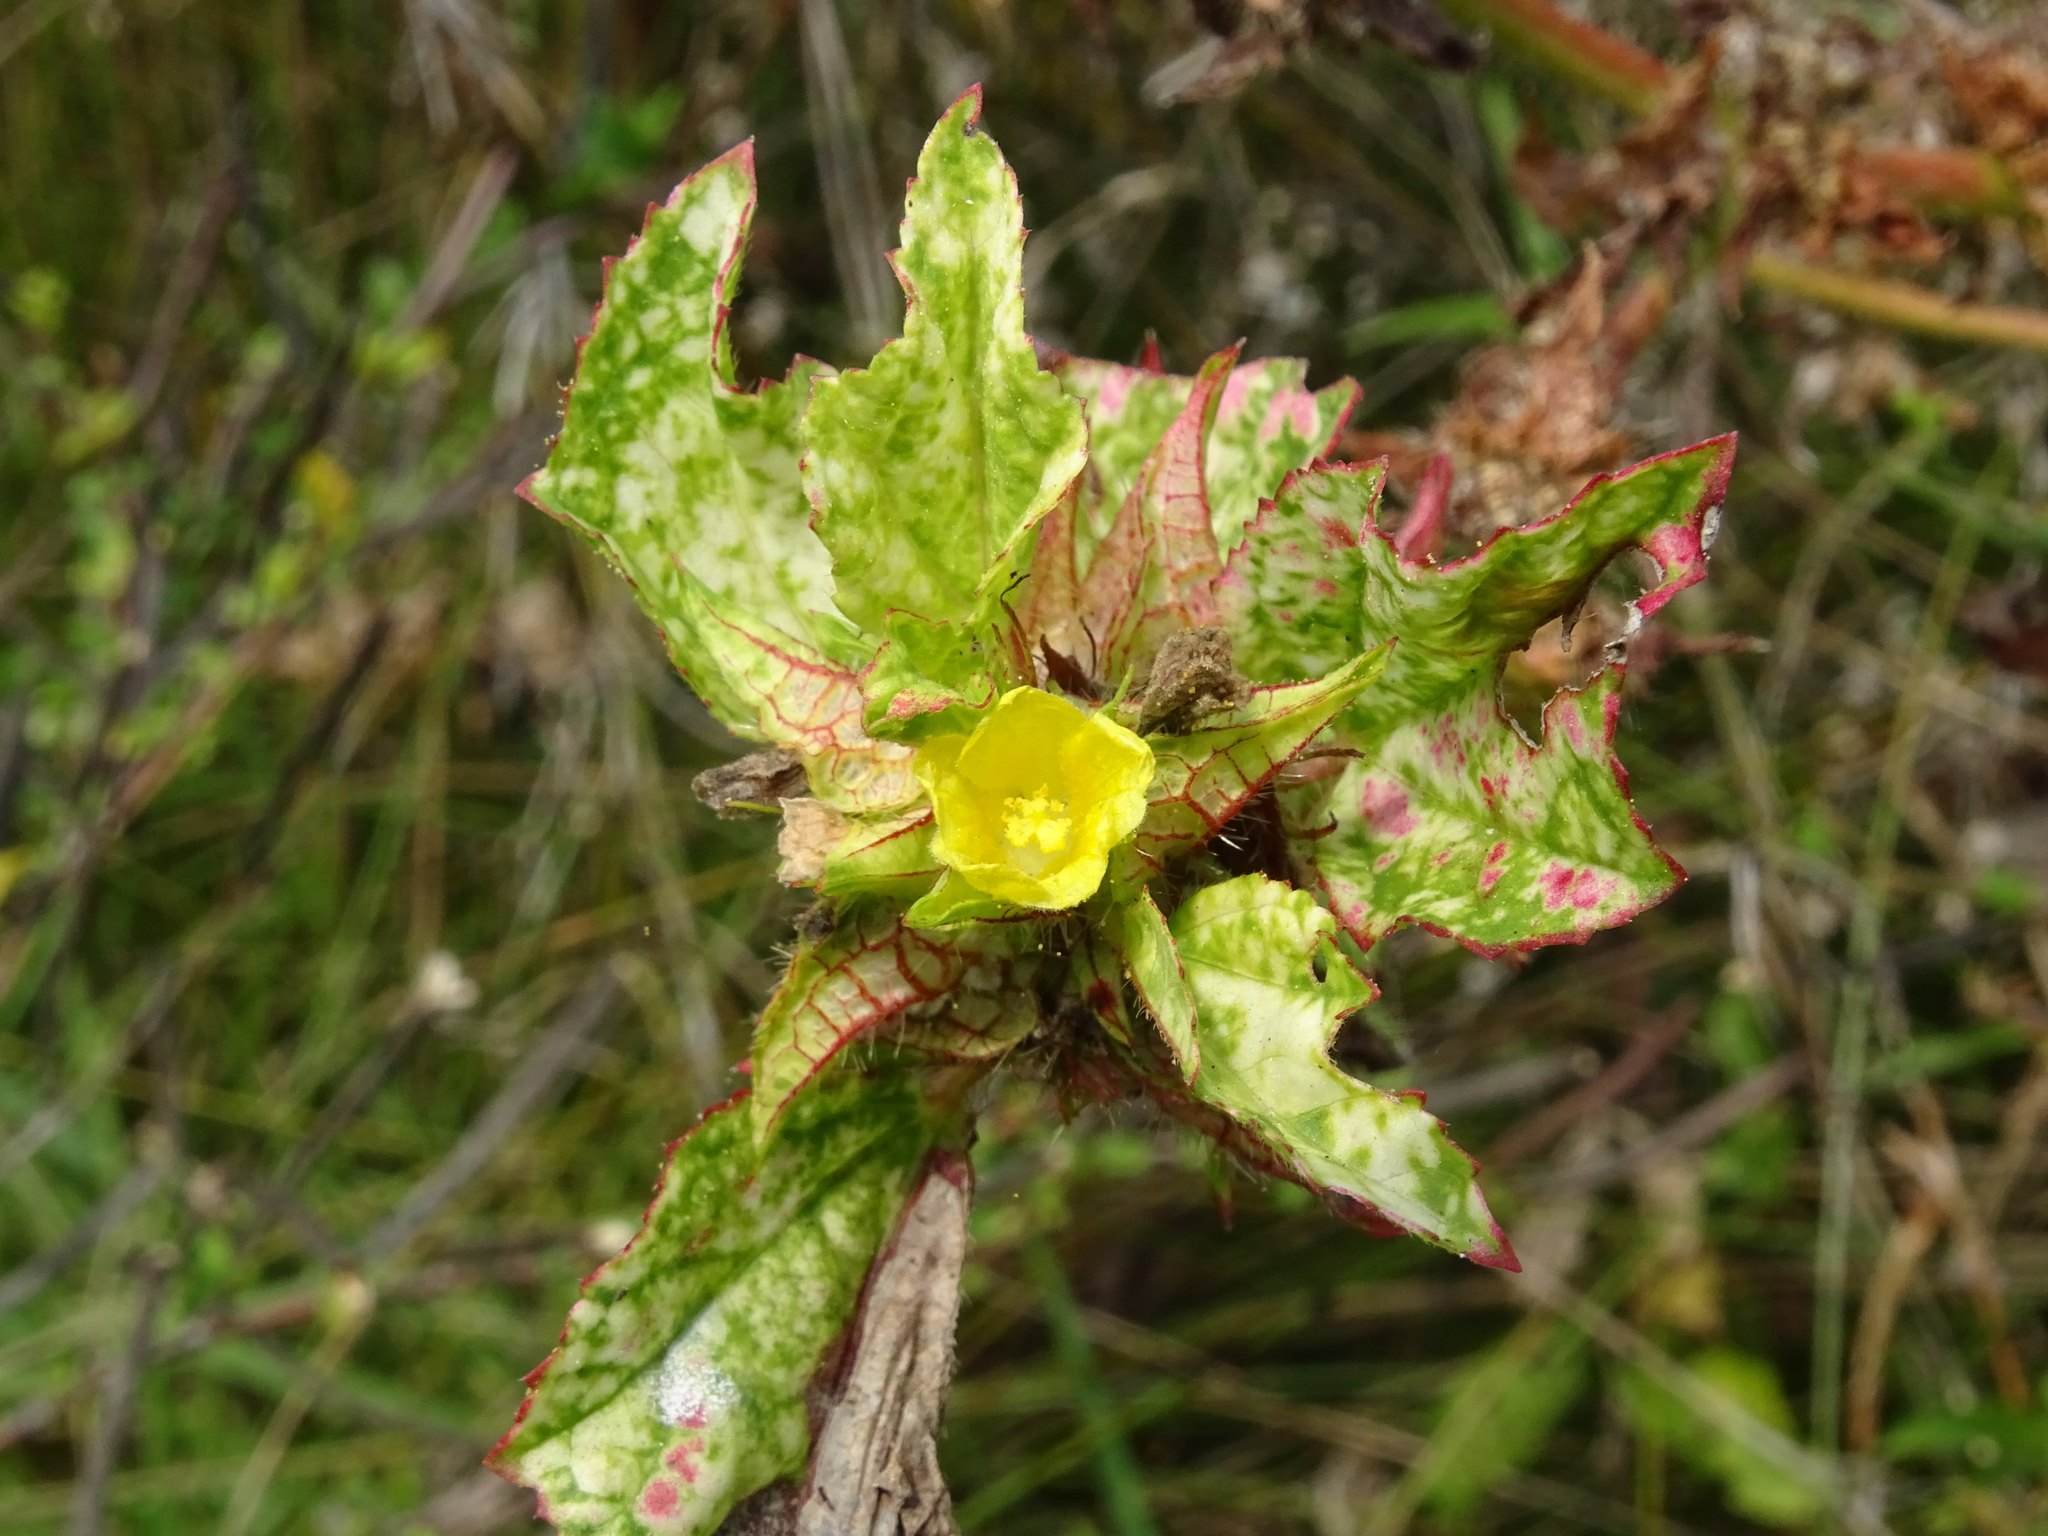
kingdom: Plantae
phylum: Tracheophyta
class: Magnoliopsida
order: Malvales
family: Malvaceae
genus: Malachra
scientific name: Malachra alceifolia
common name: Yellow leafbract
